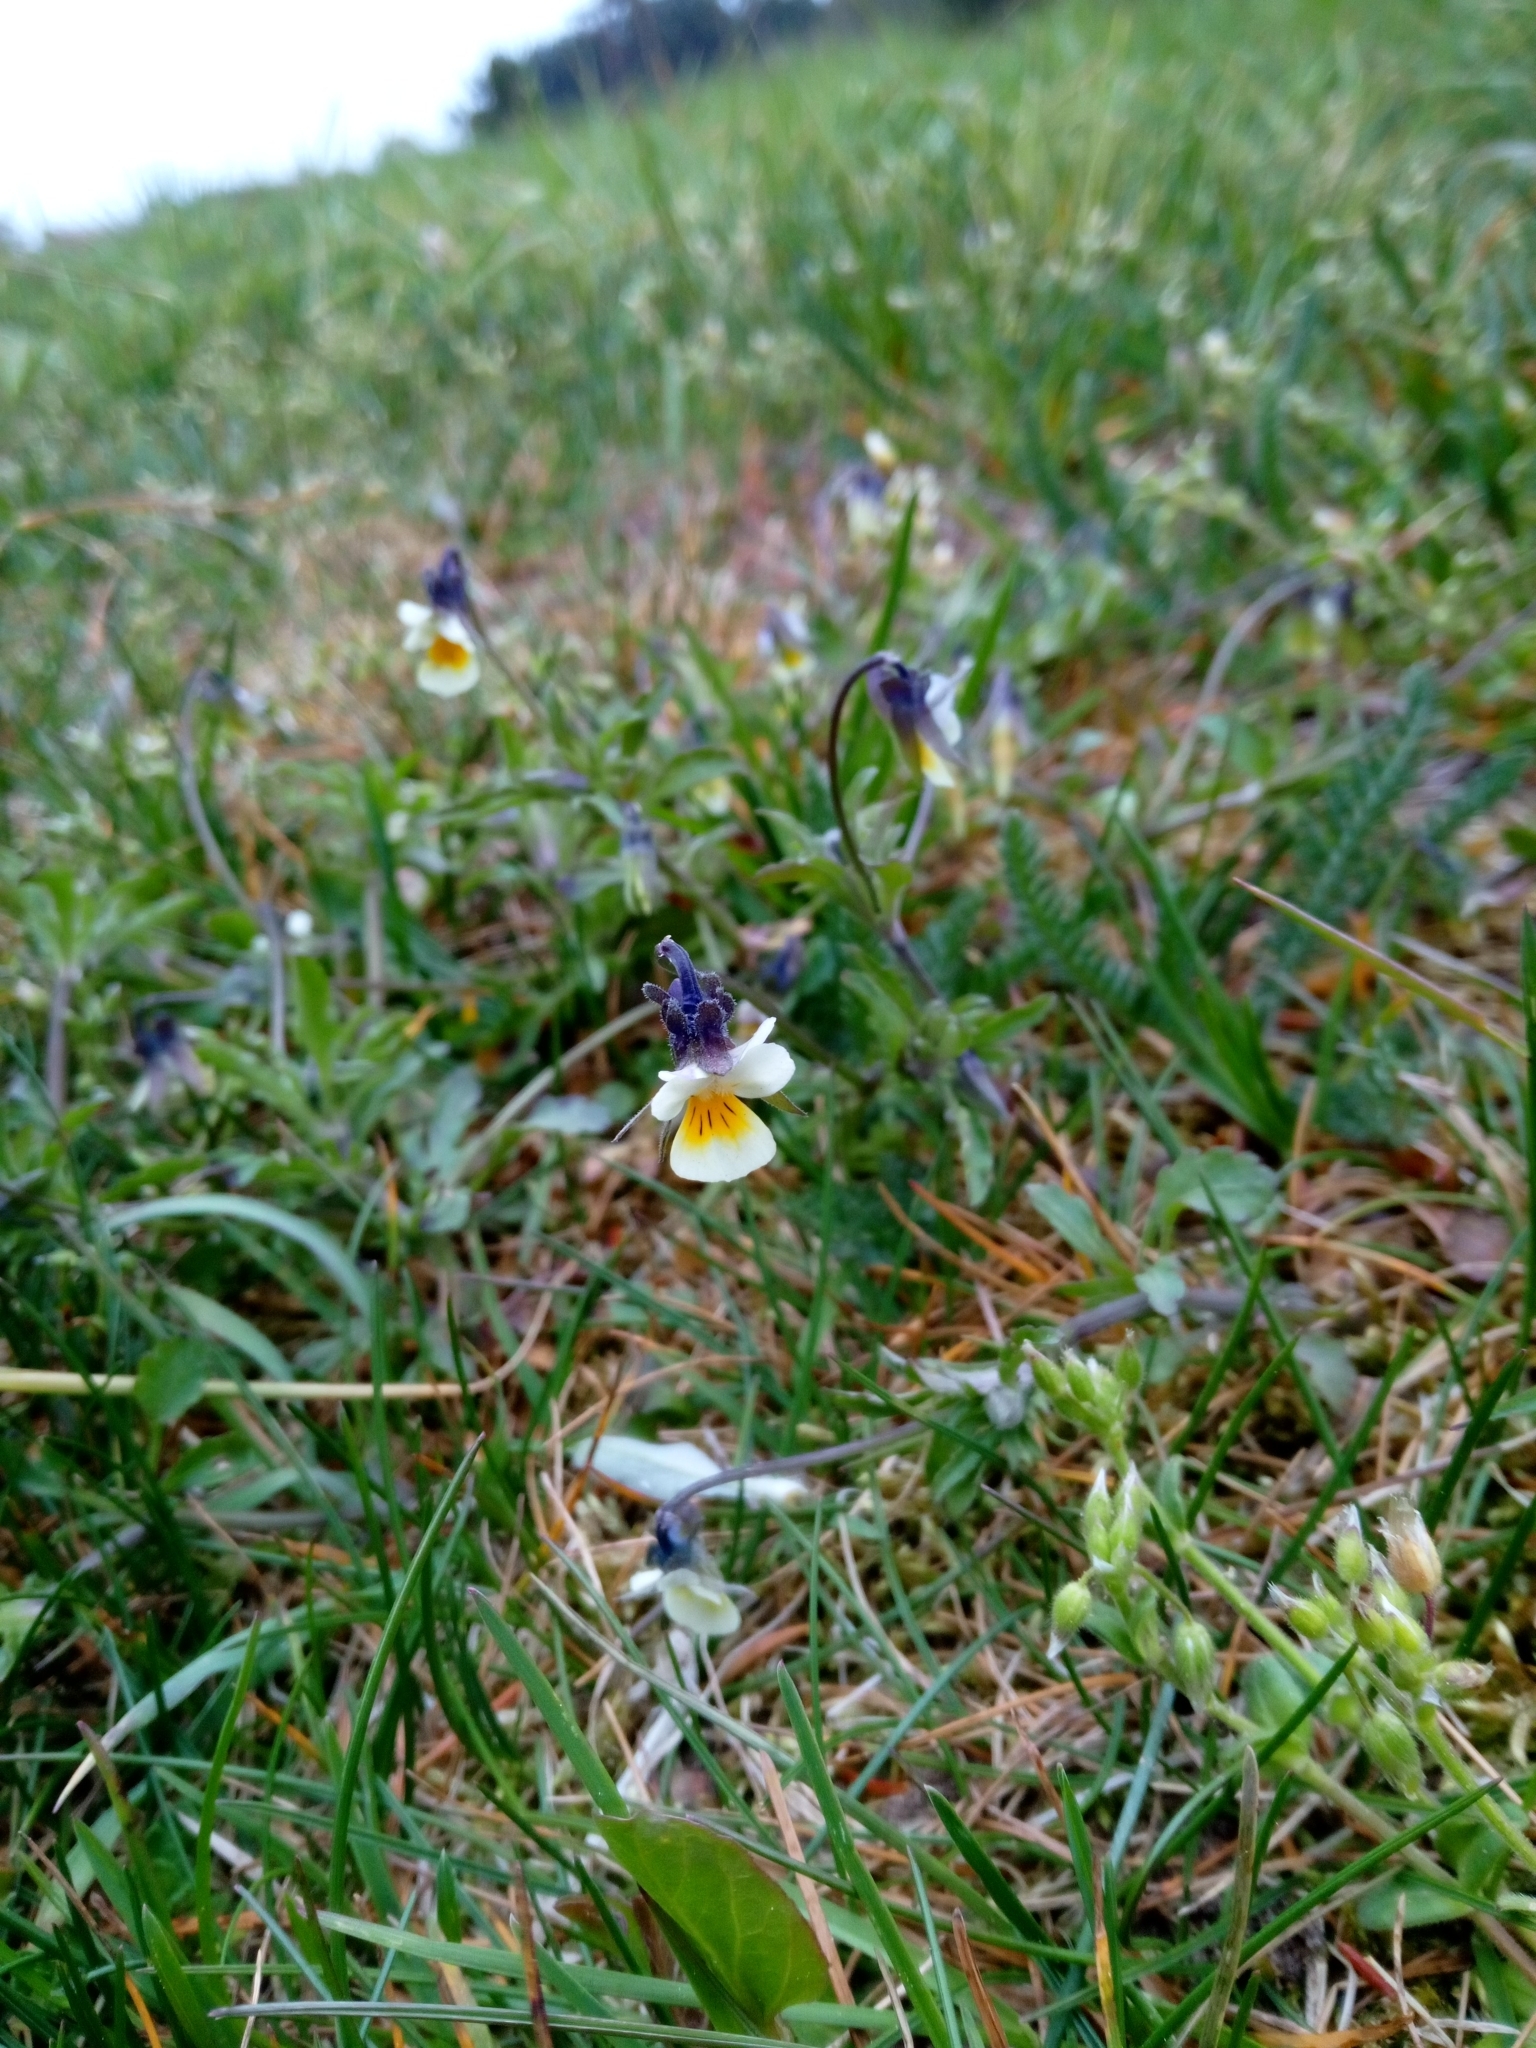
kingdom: Plantae
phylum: Tracheophyta
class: Magnoliopsida
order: Malpighiales
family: Violaceae
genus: Viola
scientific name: Viola arvensis
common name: Field pansy
